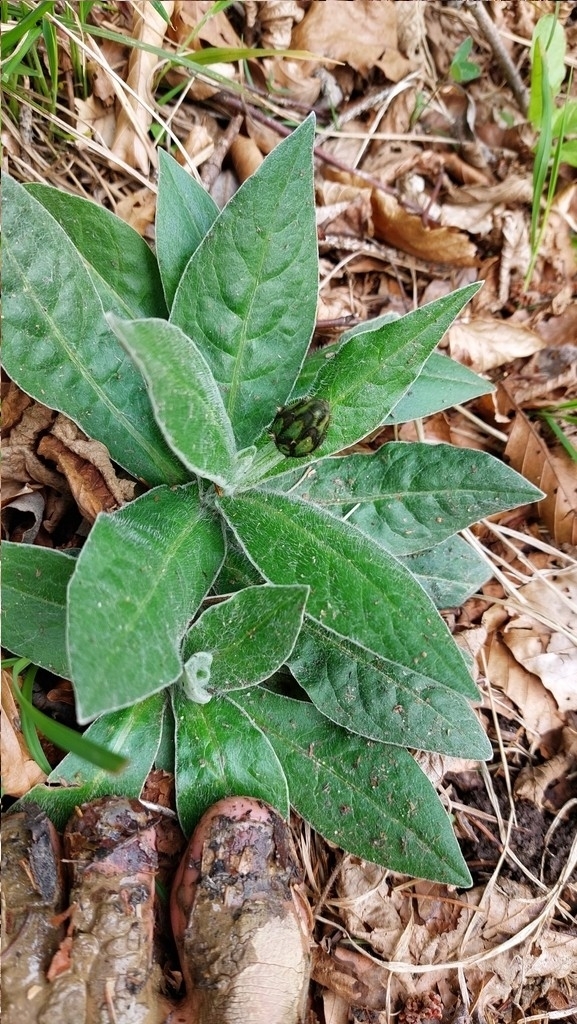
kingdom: Plantae
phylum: Tracheophyta
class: Magnoliopsida
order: Asterales
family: Asteraceae
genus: Centaurea
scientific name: Centaurea montana
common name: Perennial cornflower
